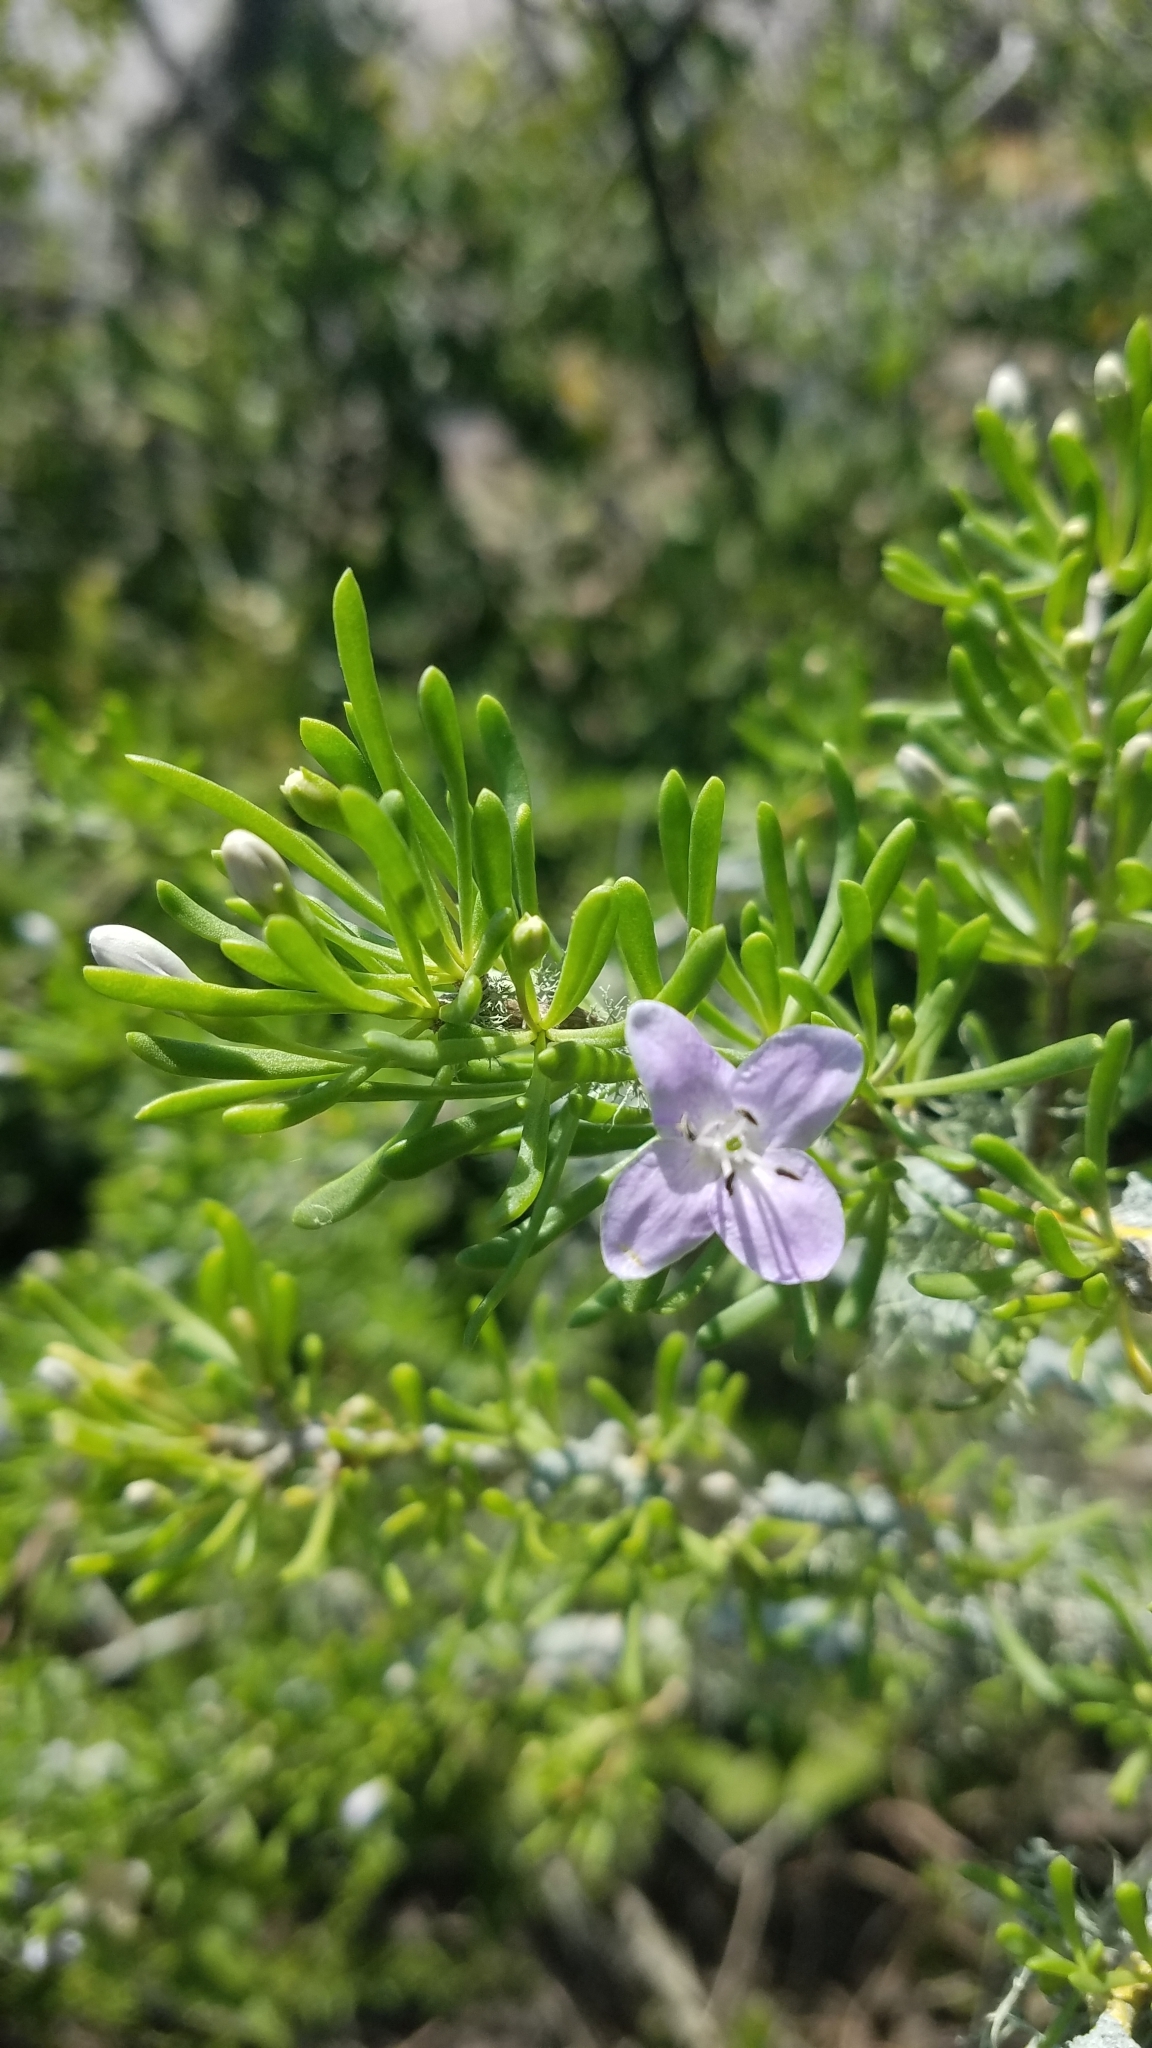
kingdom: Plantae
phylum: Tracheophyta
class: Magnoliopsida
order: Solanales
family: Solanaceae
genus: Lycium
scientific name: Lycium carolinianum
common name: Christmasberry
